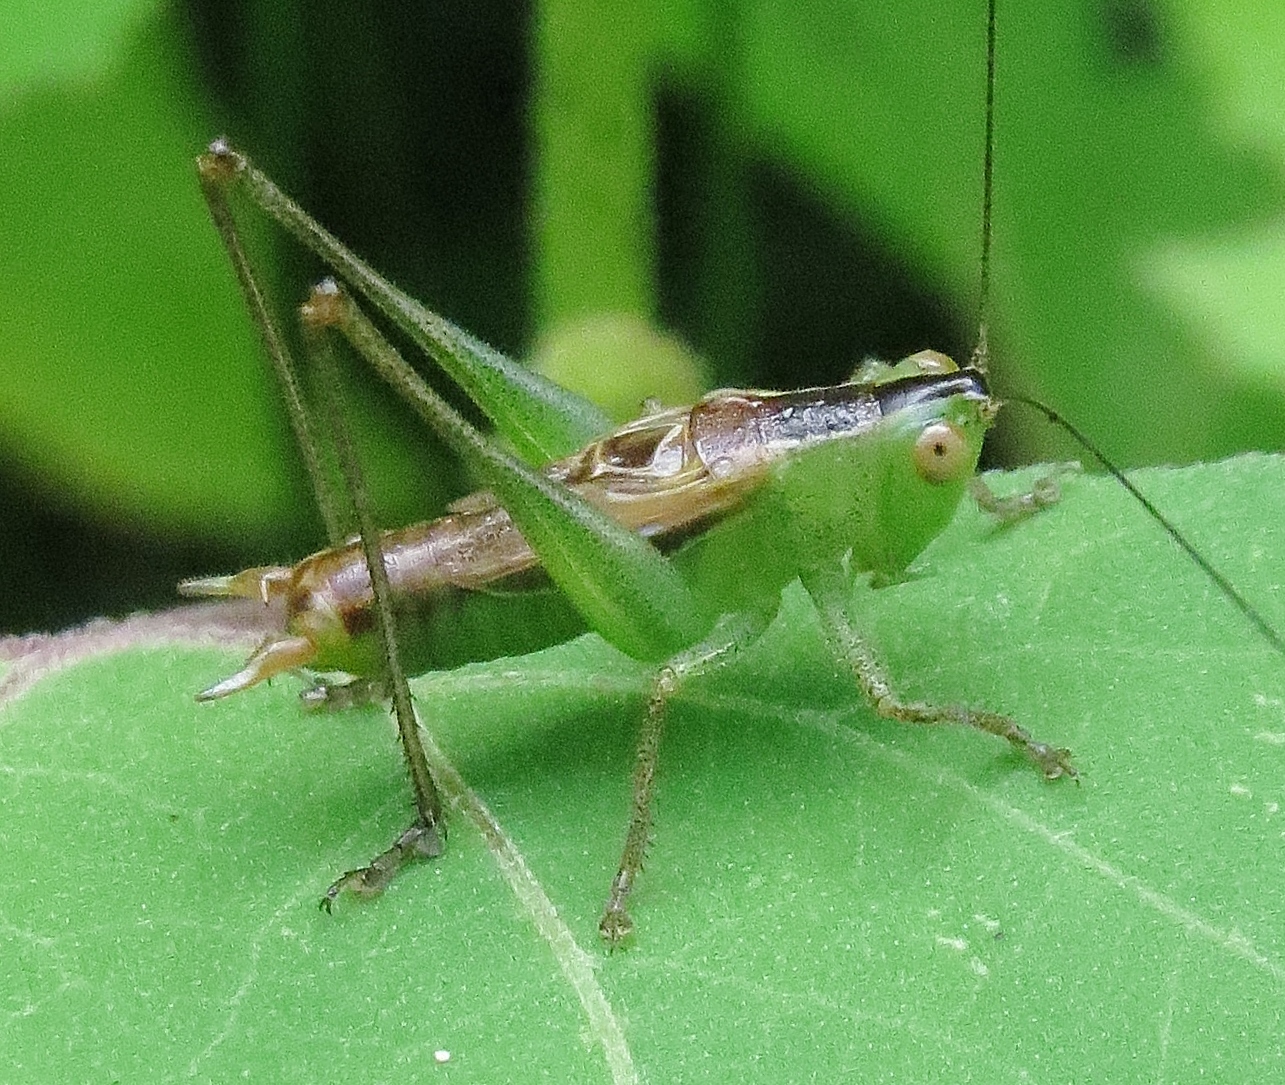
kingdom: Animalia
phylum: Arthropoda
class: Insecta
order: Orthoptera
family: Tettigoniidae
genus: Conocephalus
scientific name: Conocephalus strictus
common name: Straight-lanced katydid
